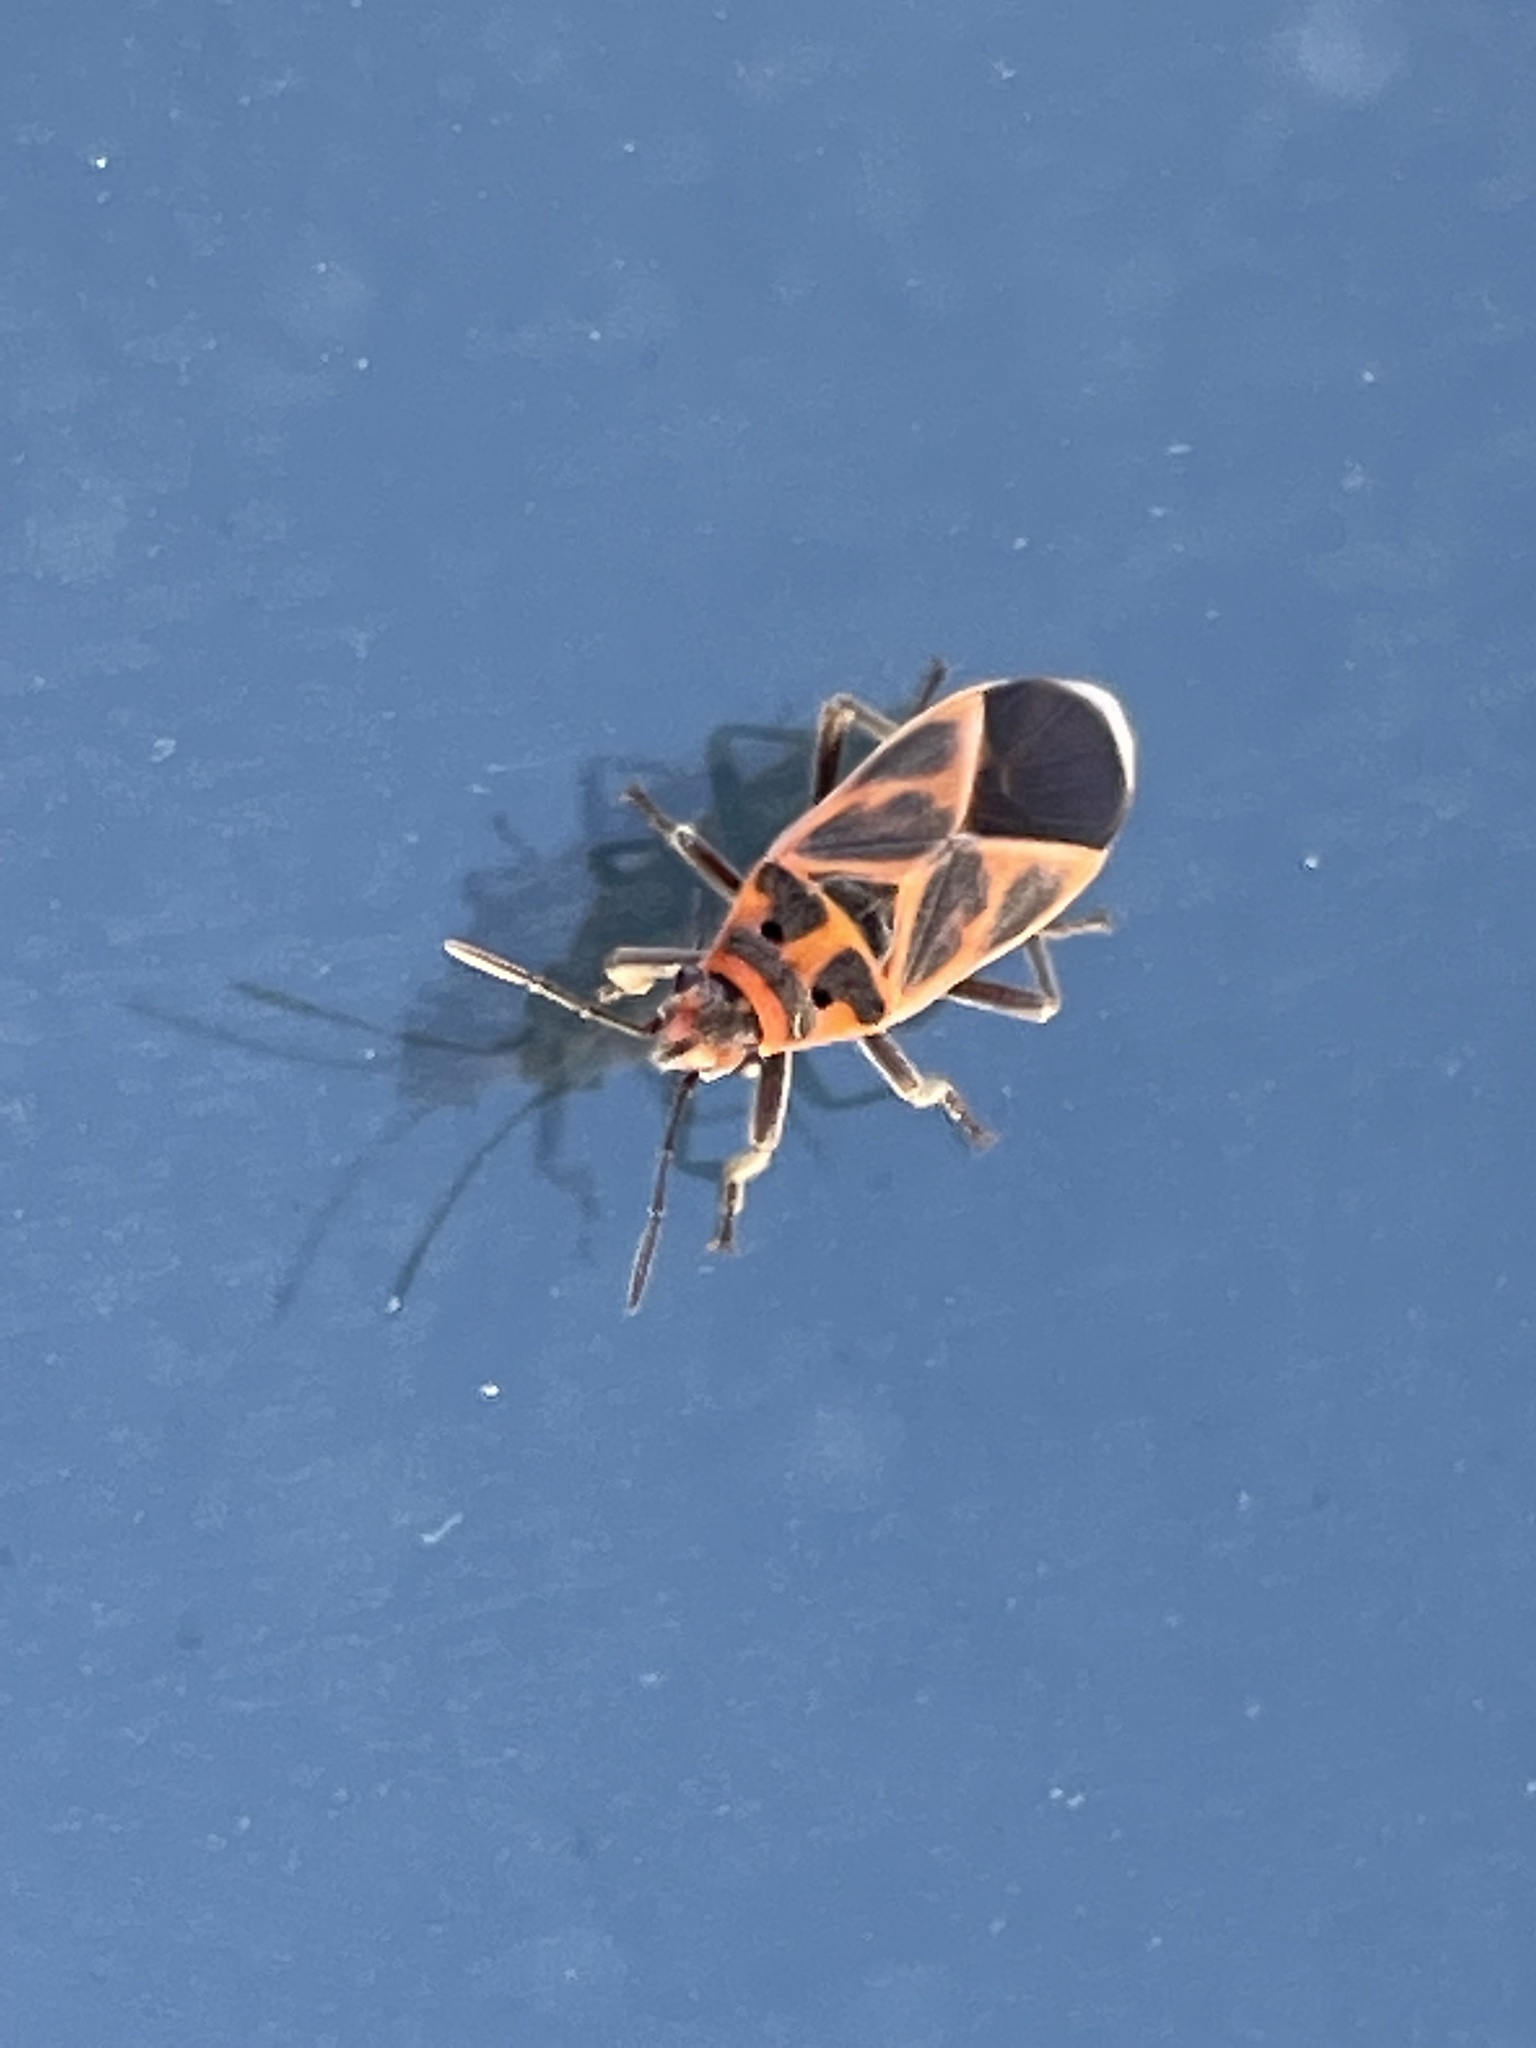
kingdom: Animalia
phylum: Arthropoda
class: Insecta
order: Hemiptera
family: Lygaeidae
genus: Graptostethus
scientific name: Graptostethus varipictus
